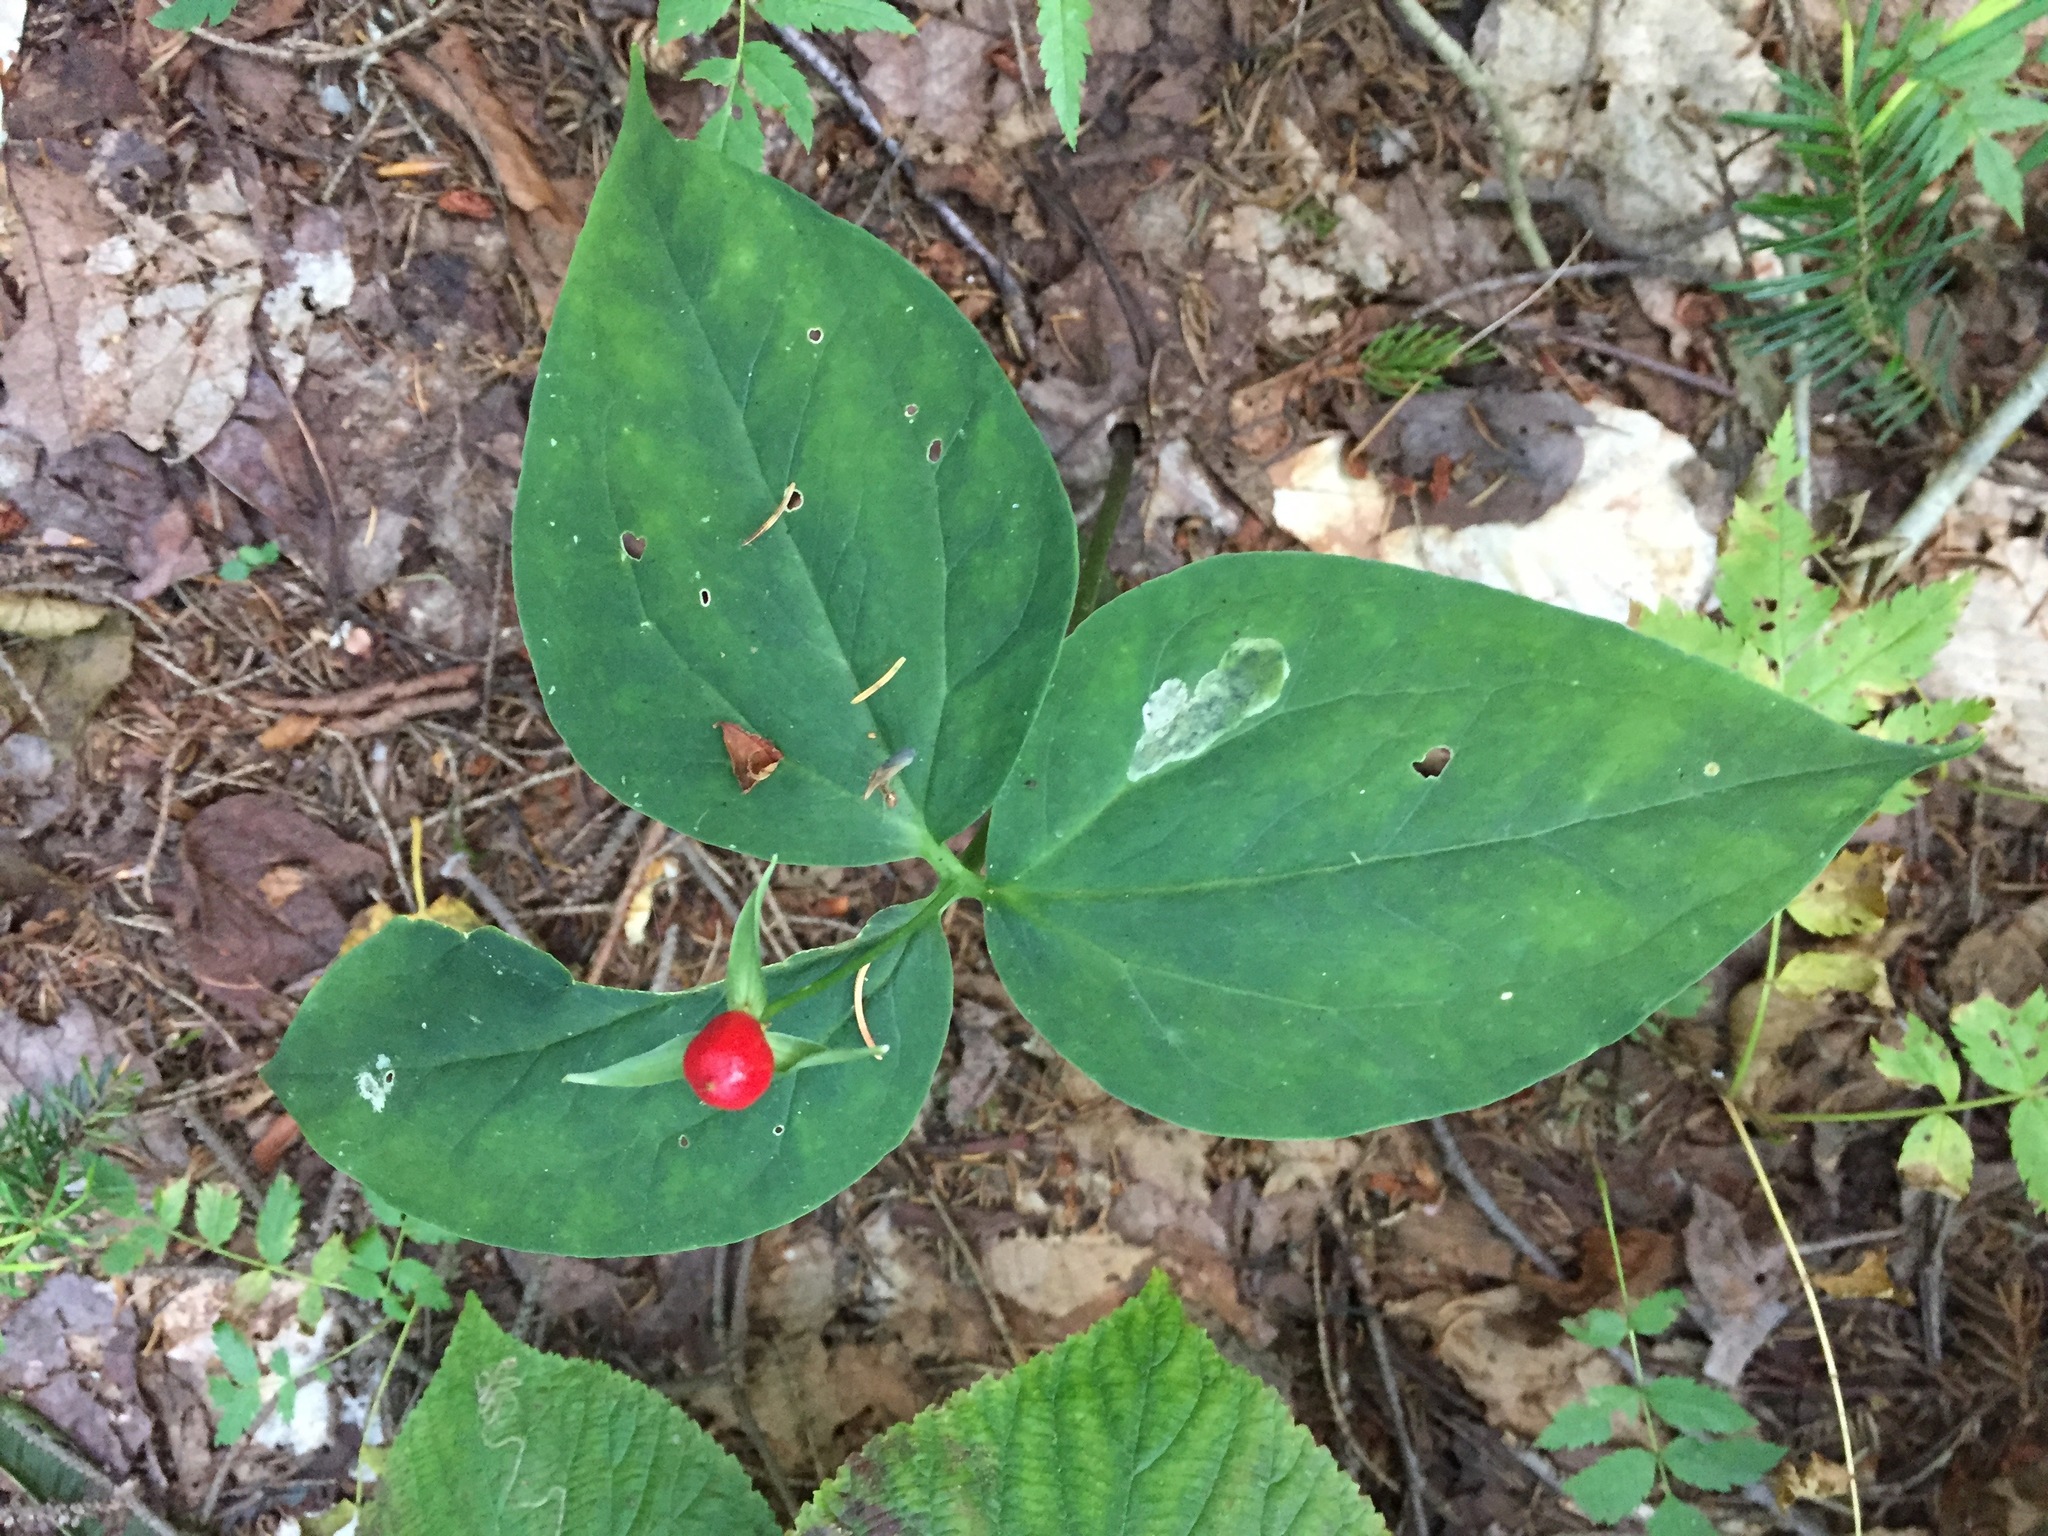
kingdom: Plantae
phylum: Tracheophyta
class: Liliopsida
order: Liliales
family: Melanthiaceae
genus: Trillium
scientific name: Trillium undulatum
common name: Paint trillium
